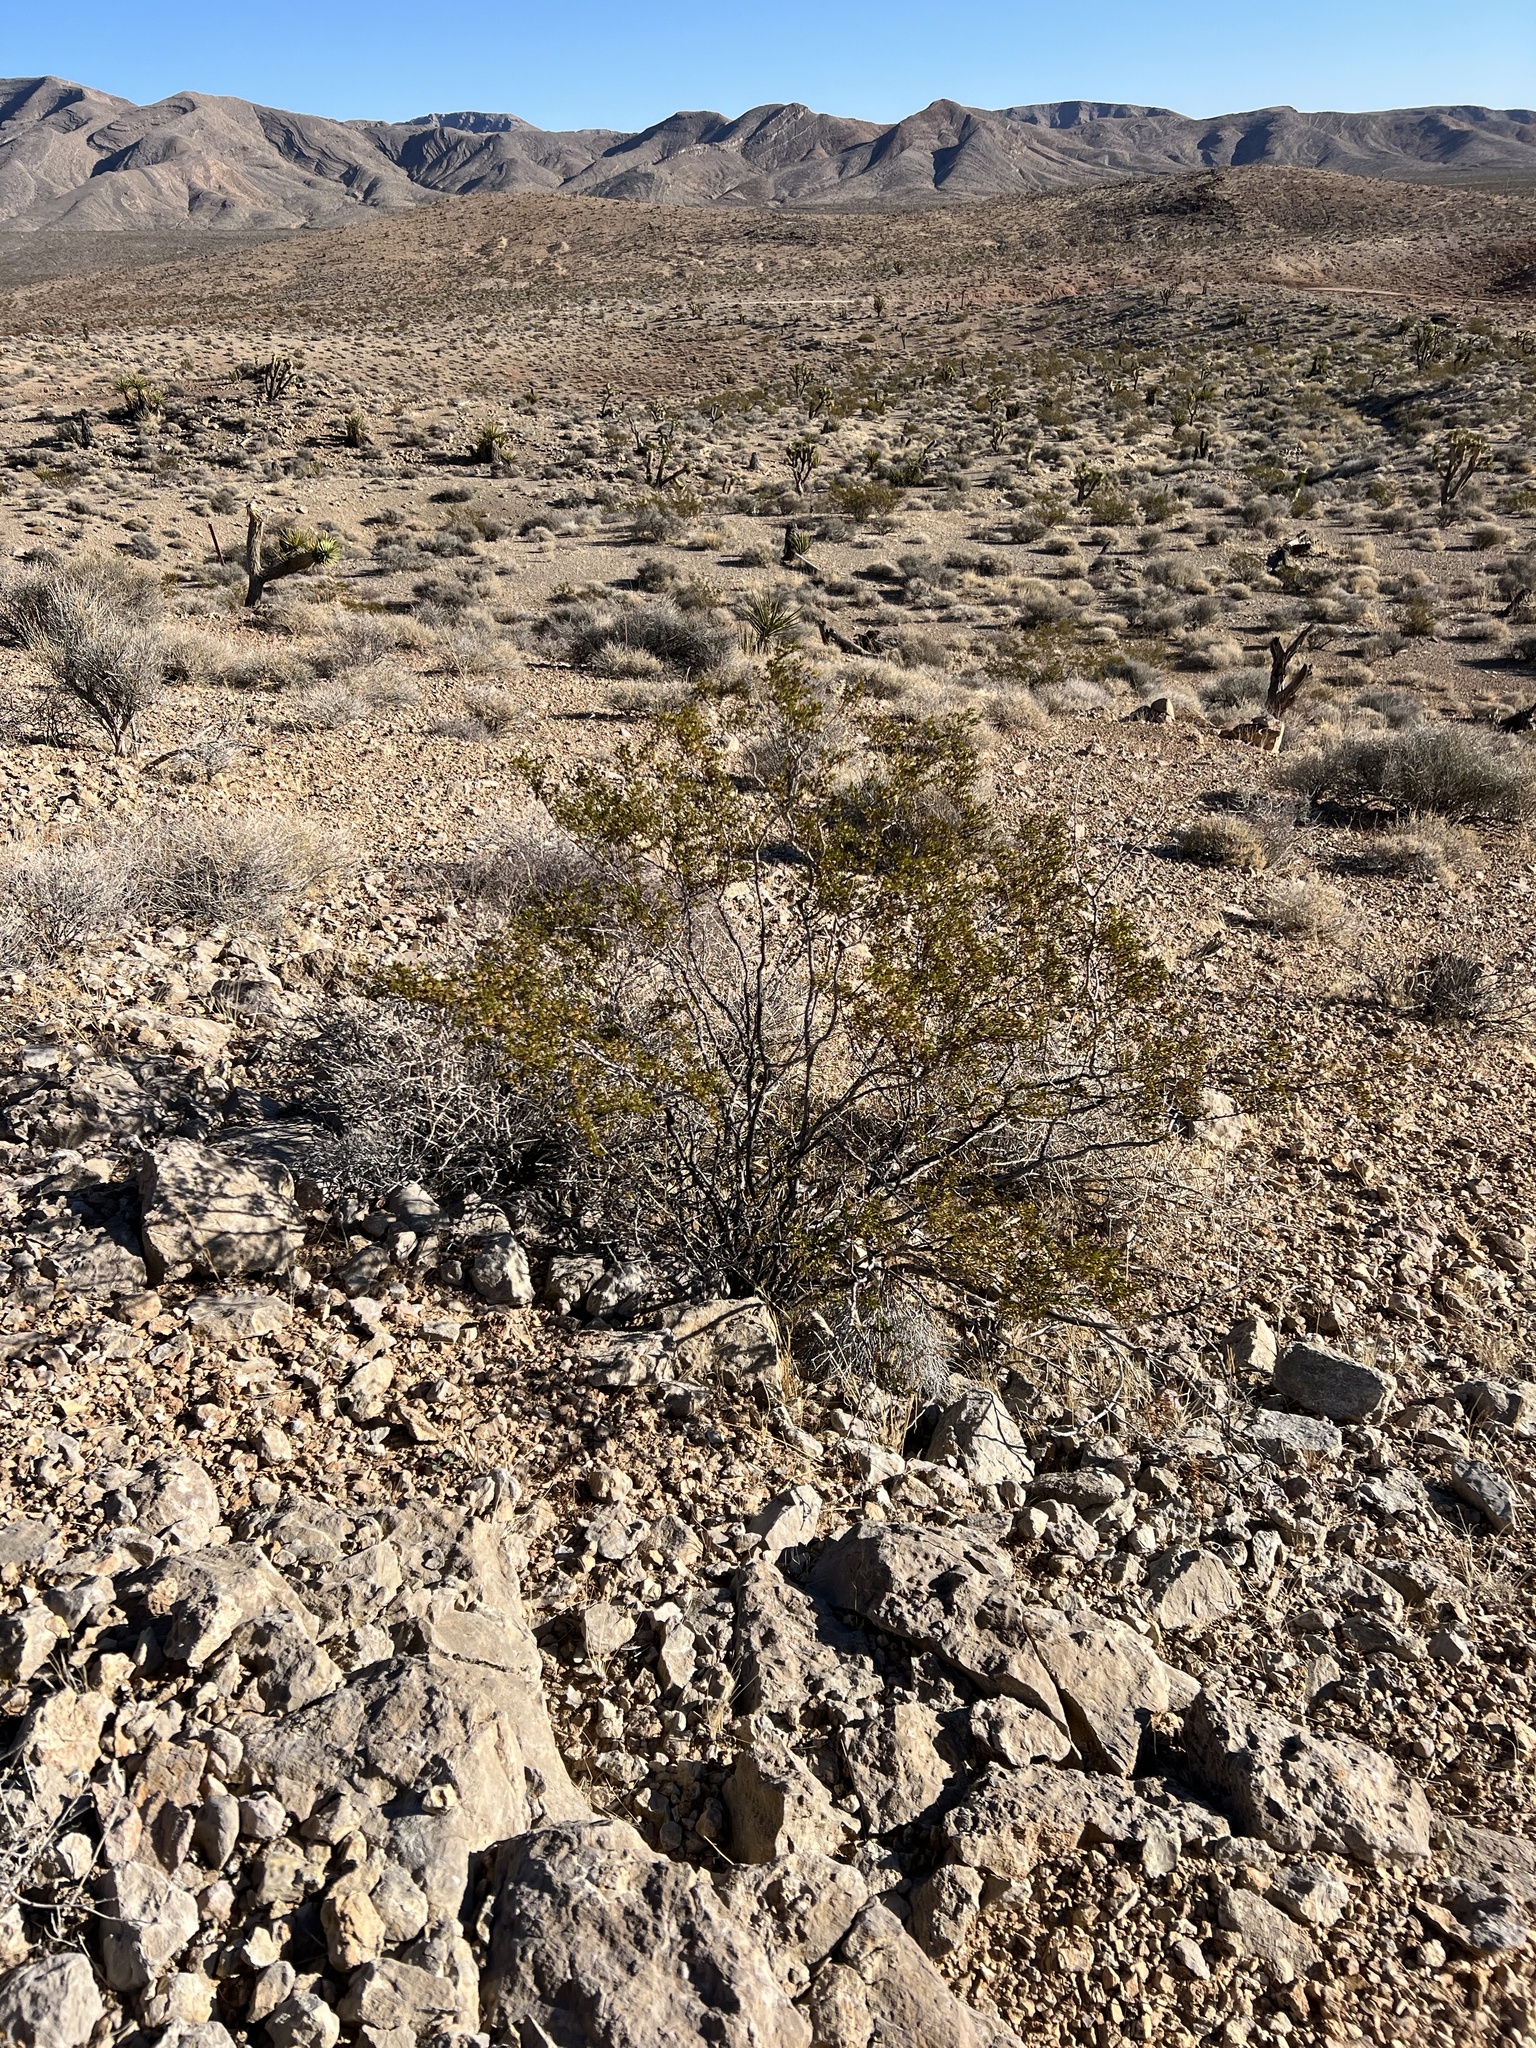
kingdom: Plantae
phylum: Tracheophyta
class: Magnoliopsida
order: Zygophyllales
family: Zygophyllaceae
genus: Larrea
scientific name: Larrea tridentata
